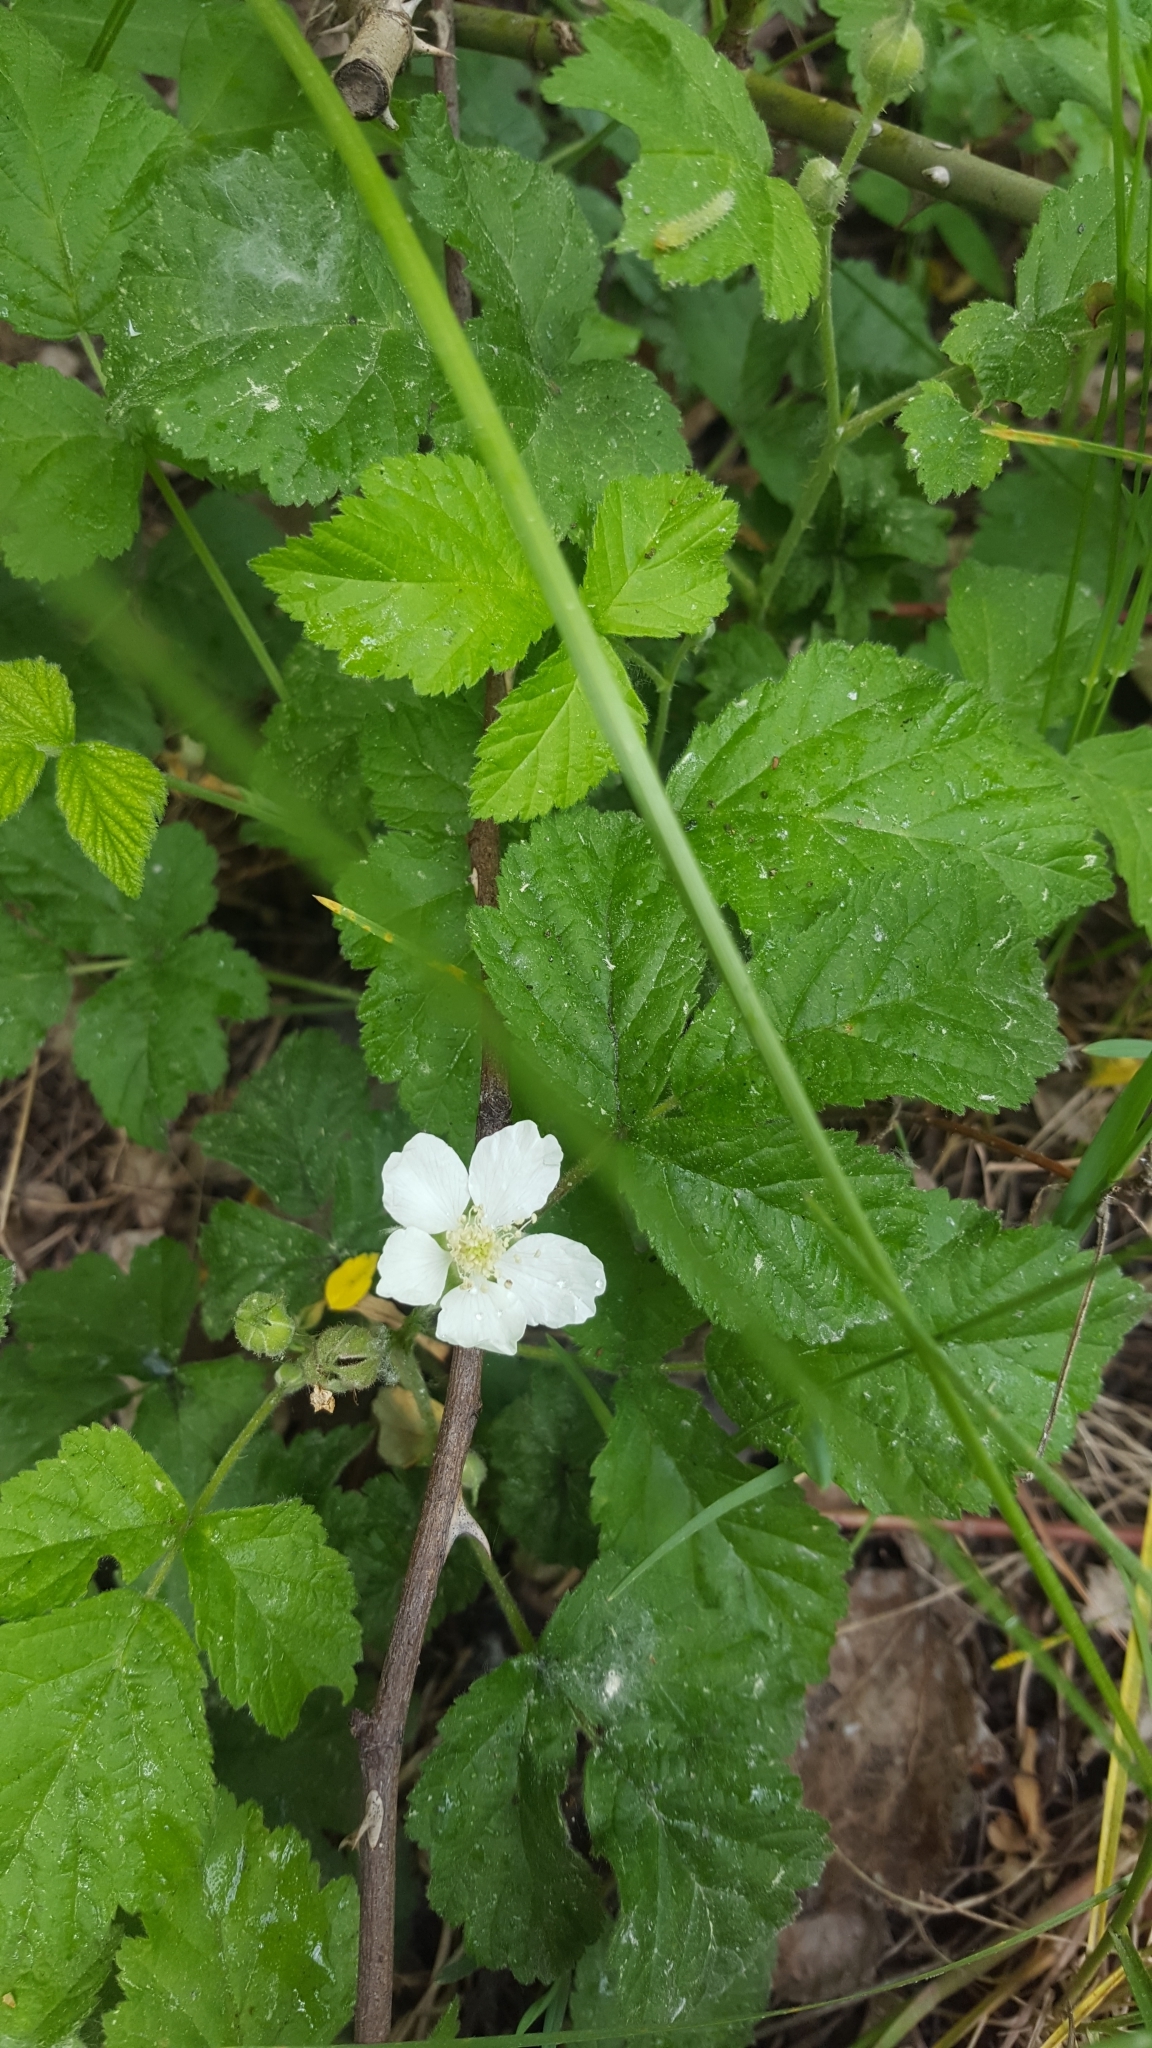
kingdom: Plantae
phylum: Tracheophyta
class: Magnoliopsida
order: Rosales
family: Rosaceae
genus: Rubus
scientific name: Rubus caesius
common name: Dewberry
